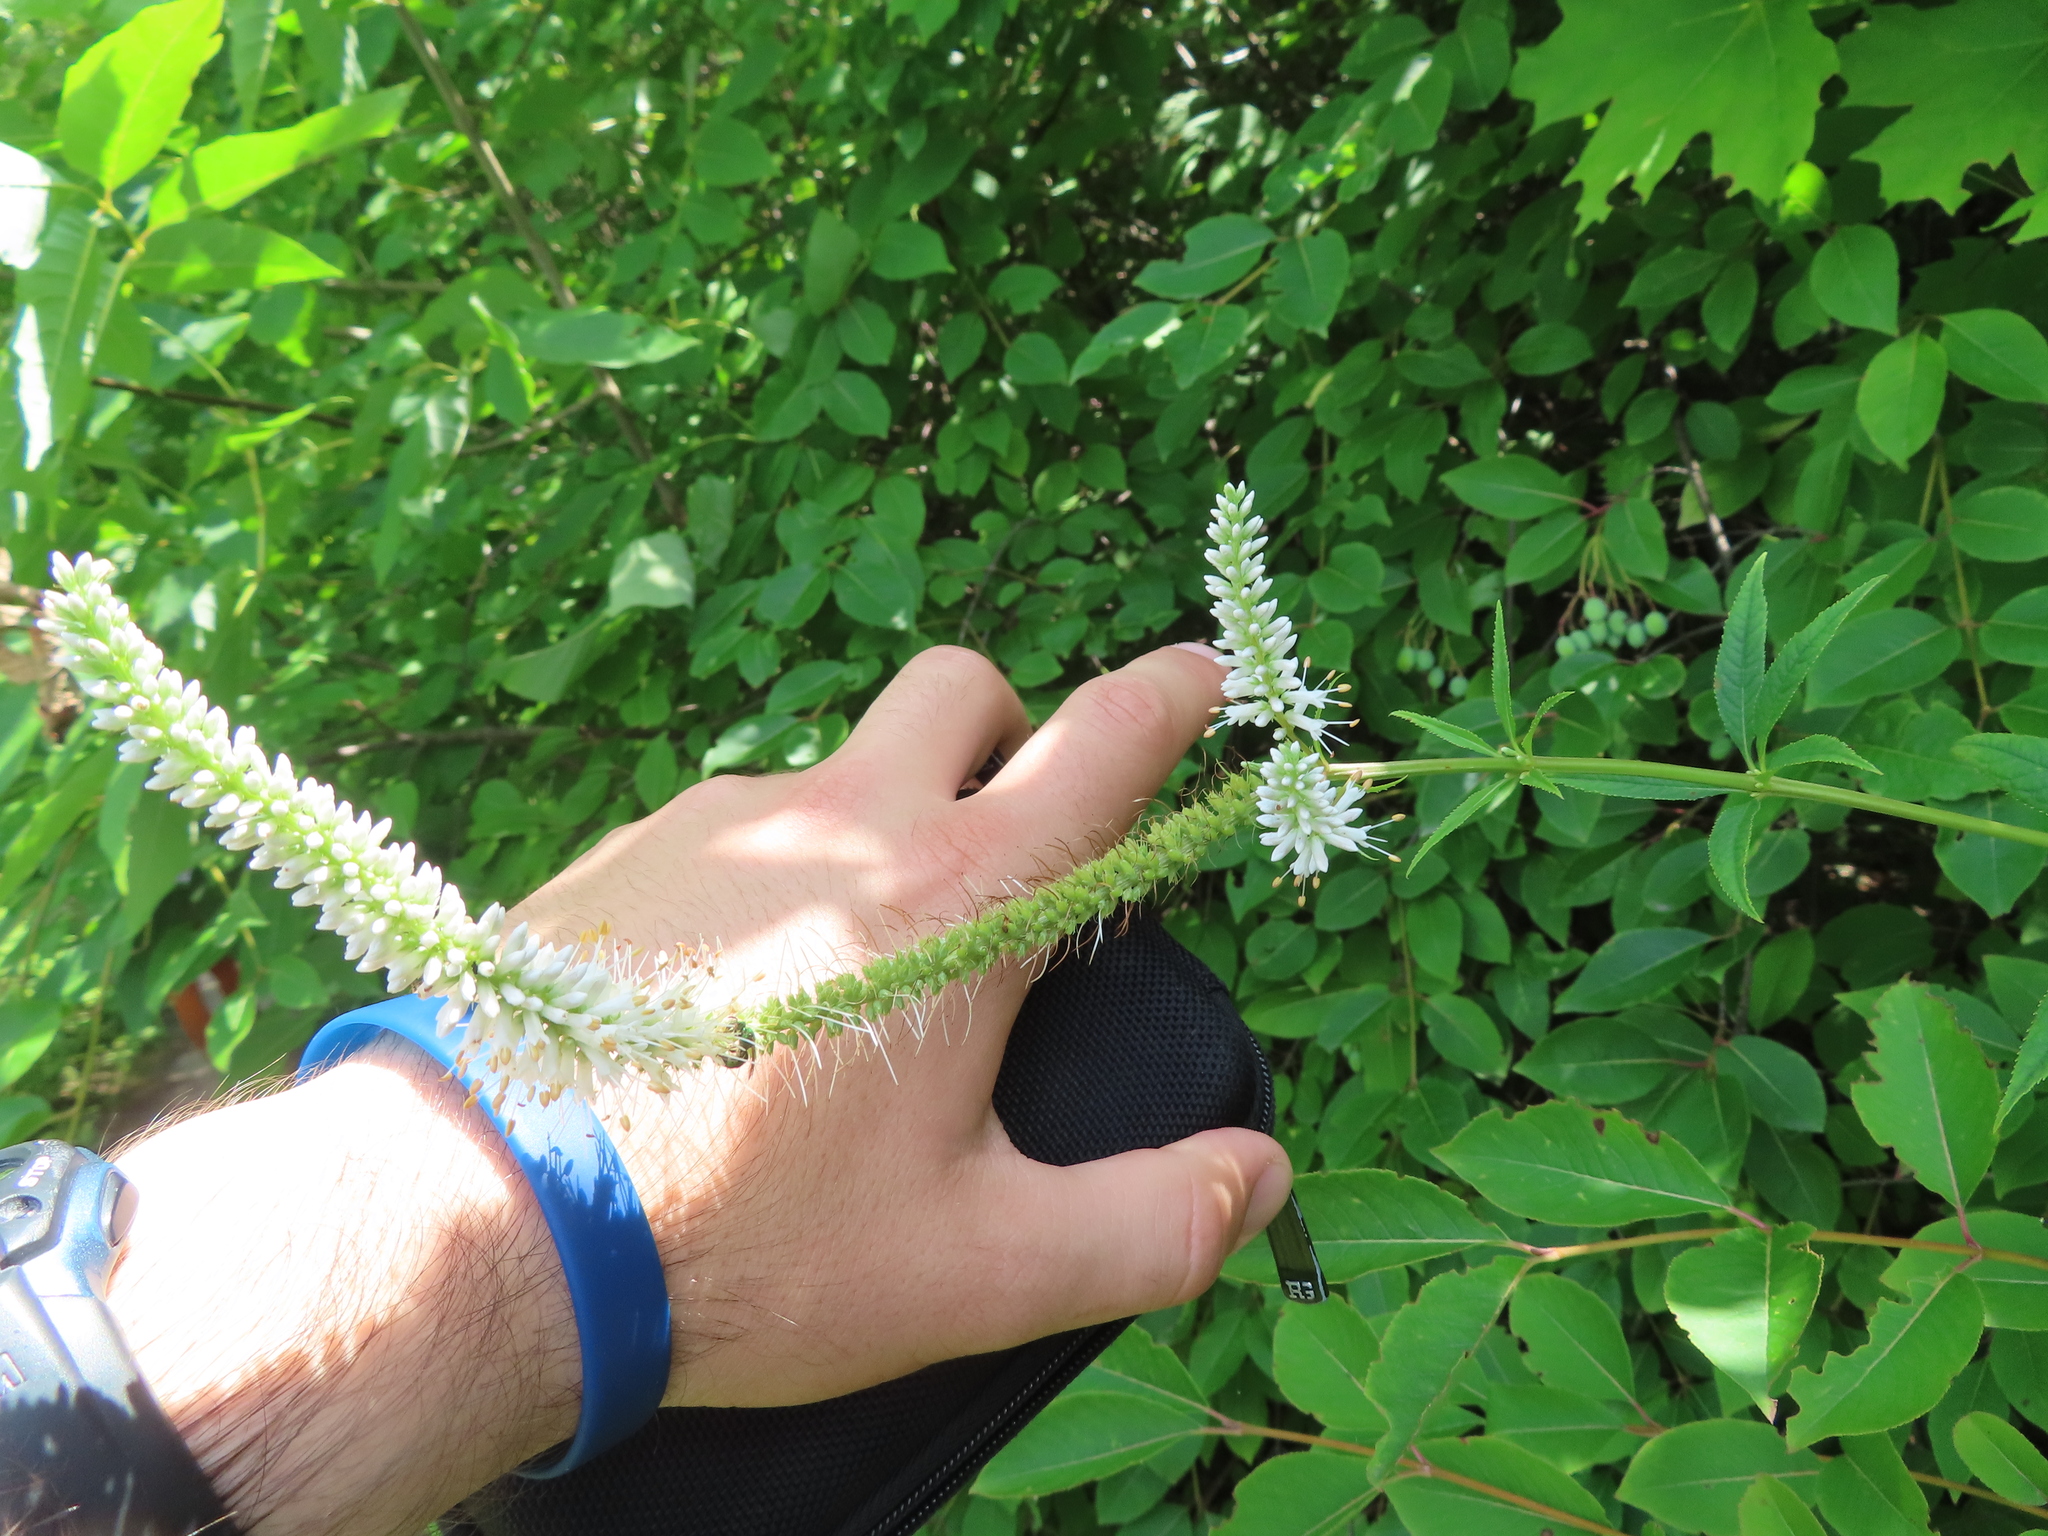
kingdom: Plantae
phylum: Tracheophyta
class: Magnoliopsida
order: Lamiales
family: Plantaginaceae
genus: Veronicastrum
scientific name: Veronicastrum virginicum
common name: Blackroot
